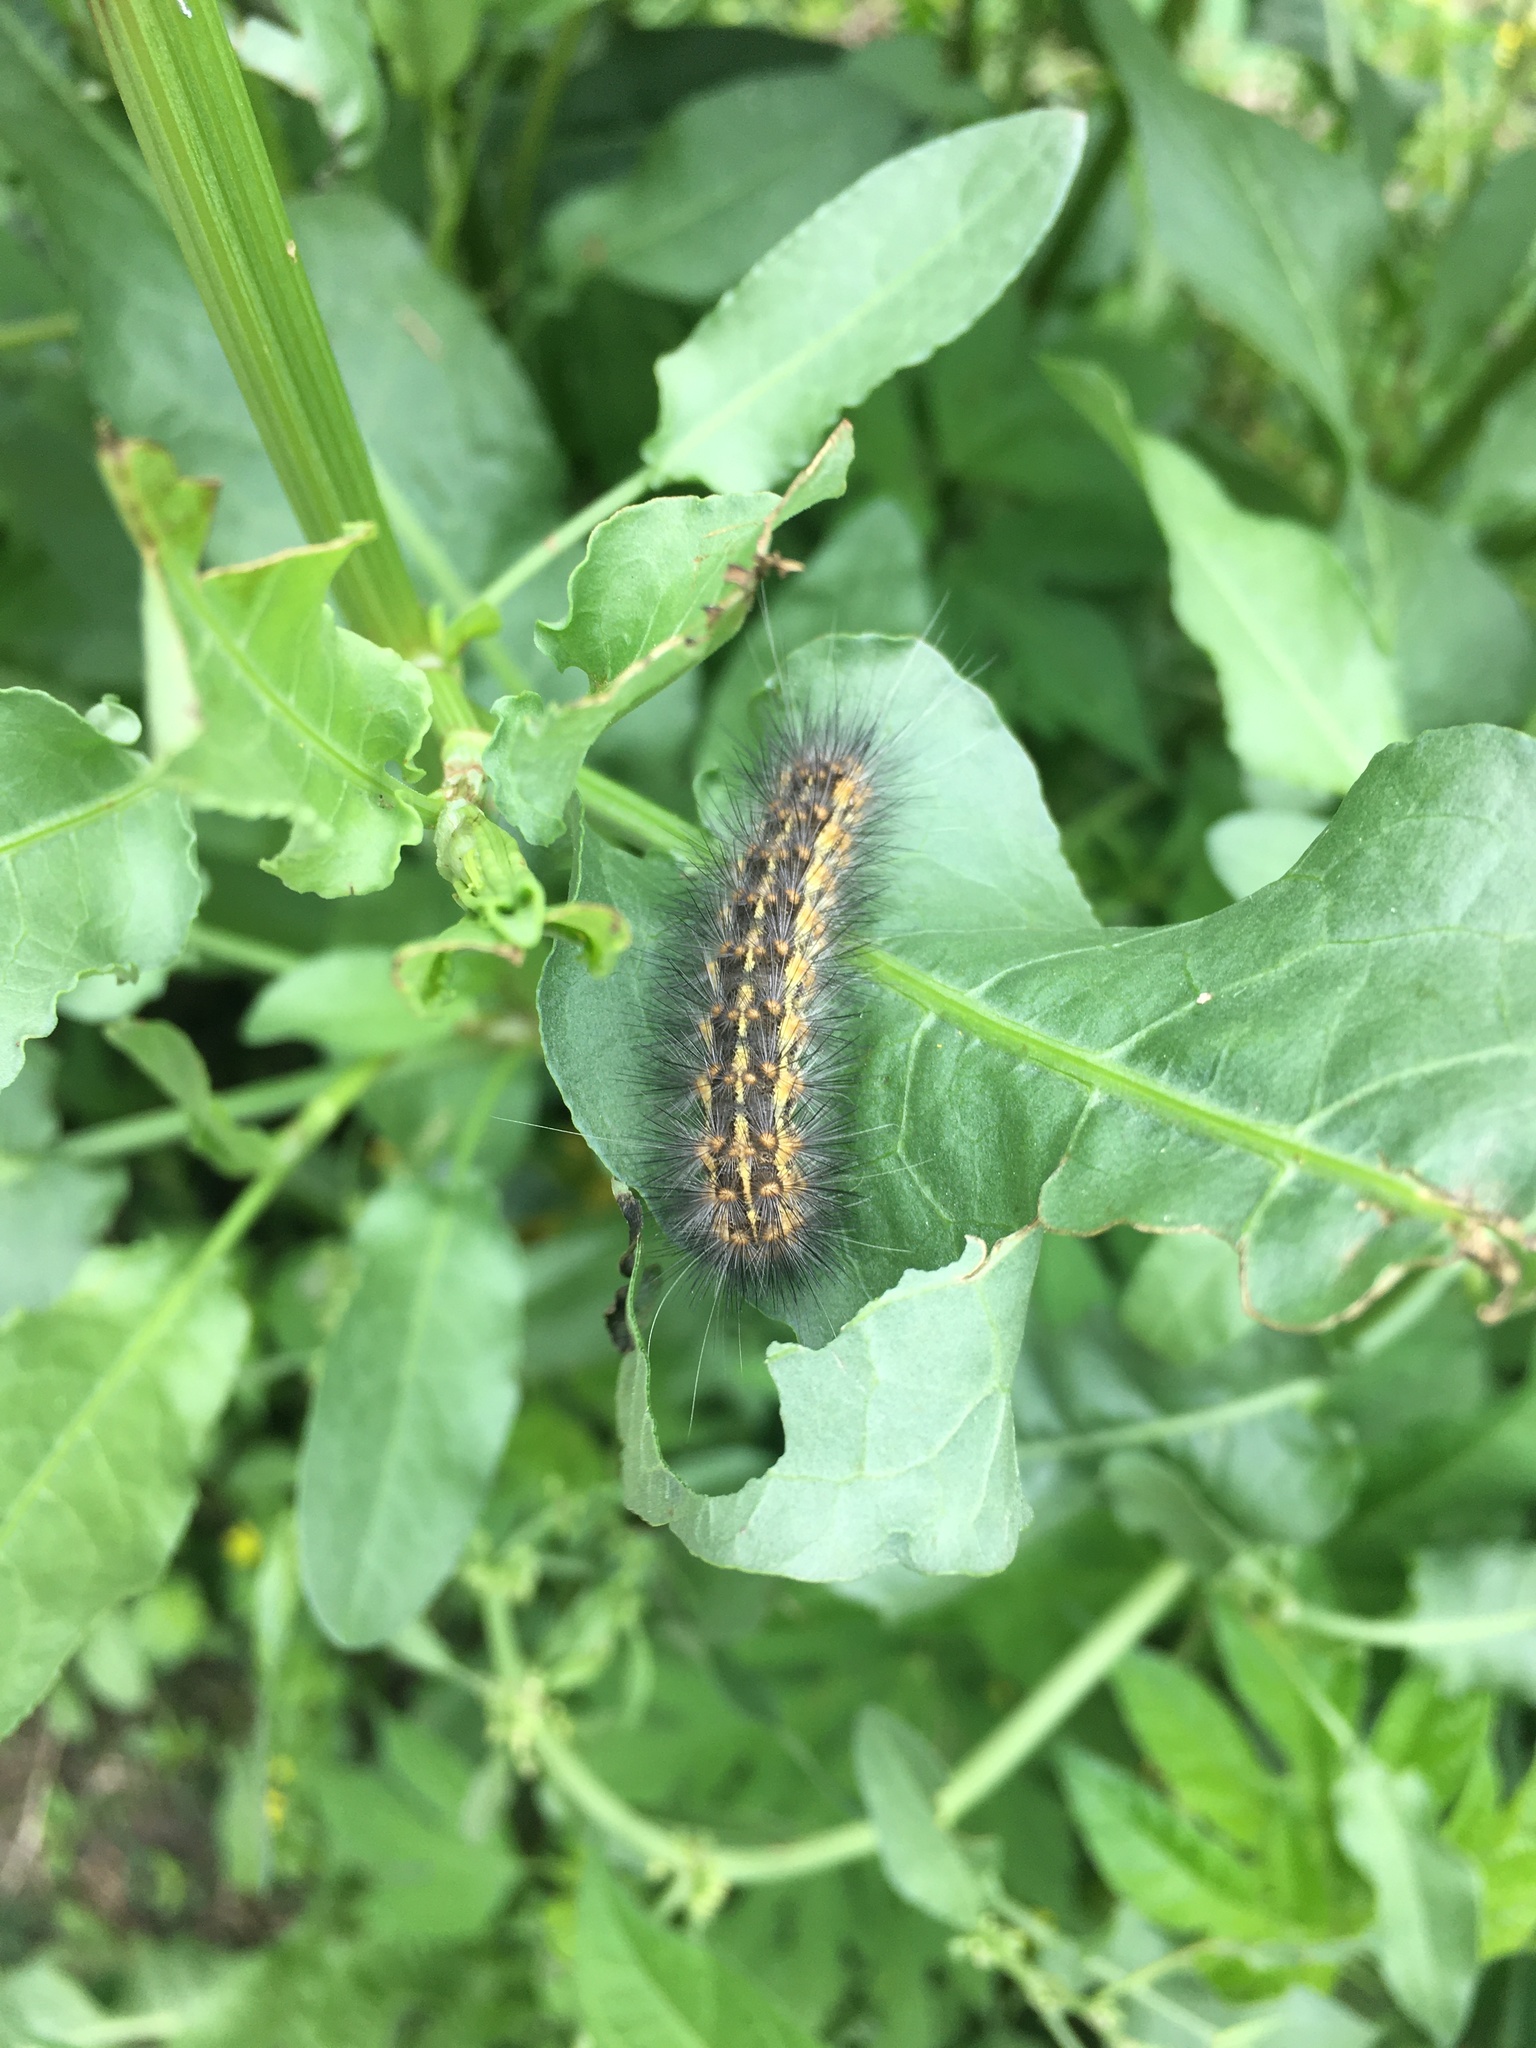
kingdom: Animalia
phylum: Arthropoda
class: Insecta
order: Lepidoptera
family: Erebidae
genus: Estigmene
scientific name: Estigmene acrea
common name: Salt marsh moth
